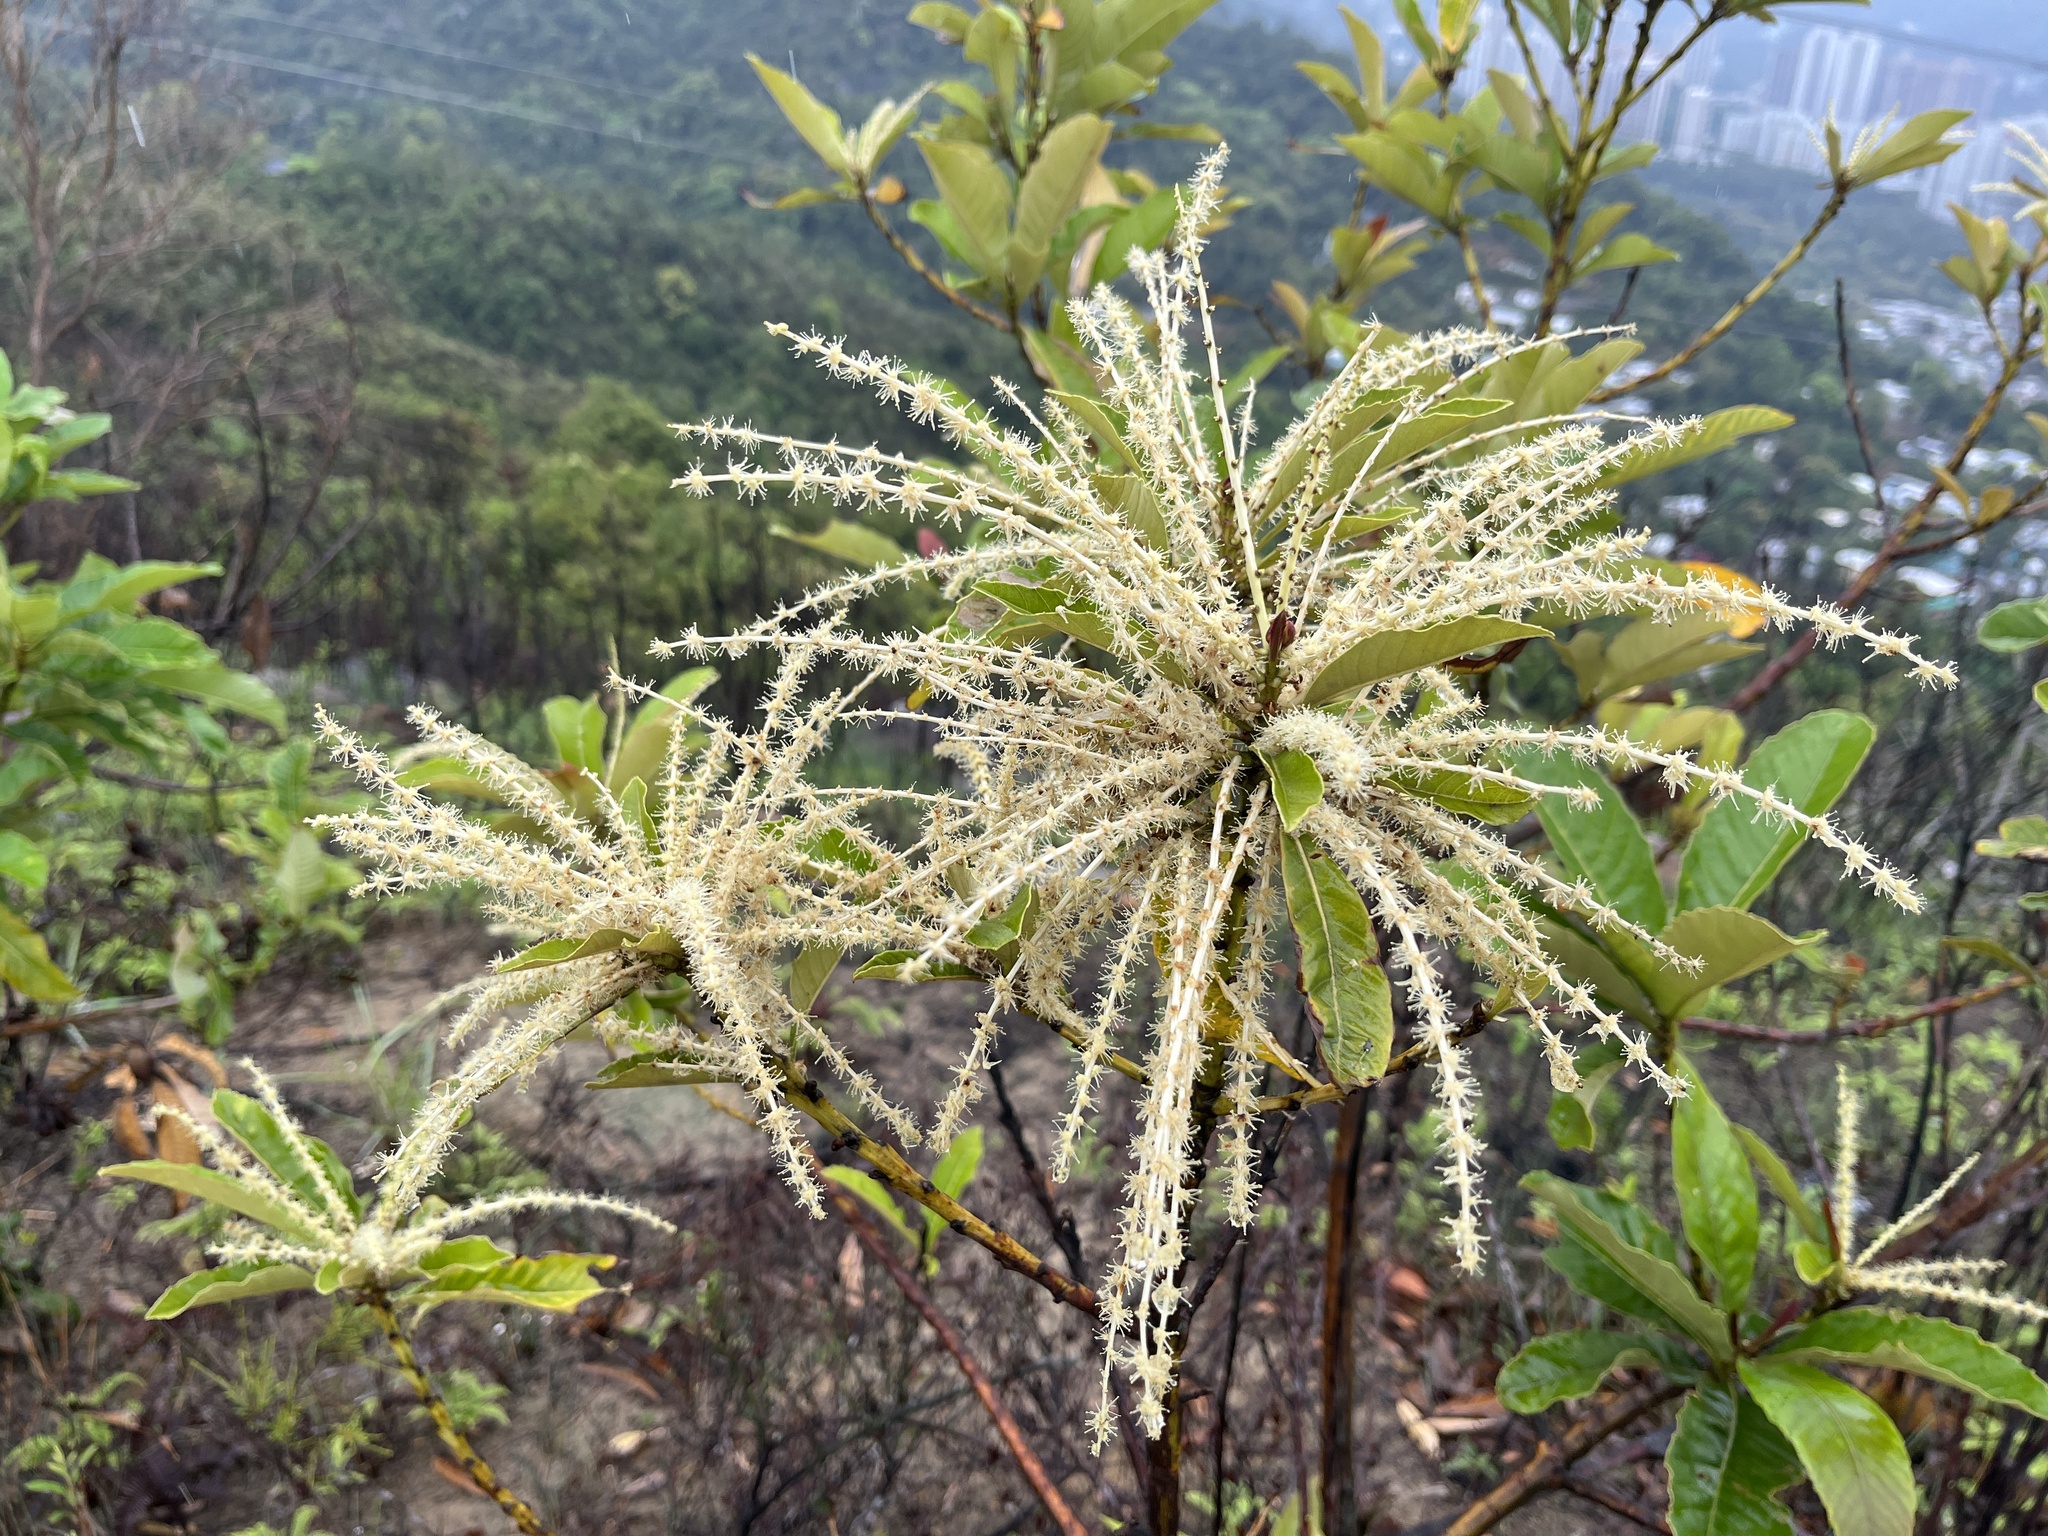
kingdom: Plantae
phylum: Tracheophyta
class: Magnoliopsida
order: Fagales
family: Fagaceae
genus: Castanopsis
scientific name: Castanopsis fissa
